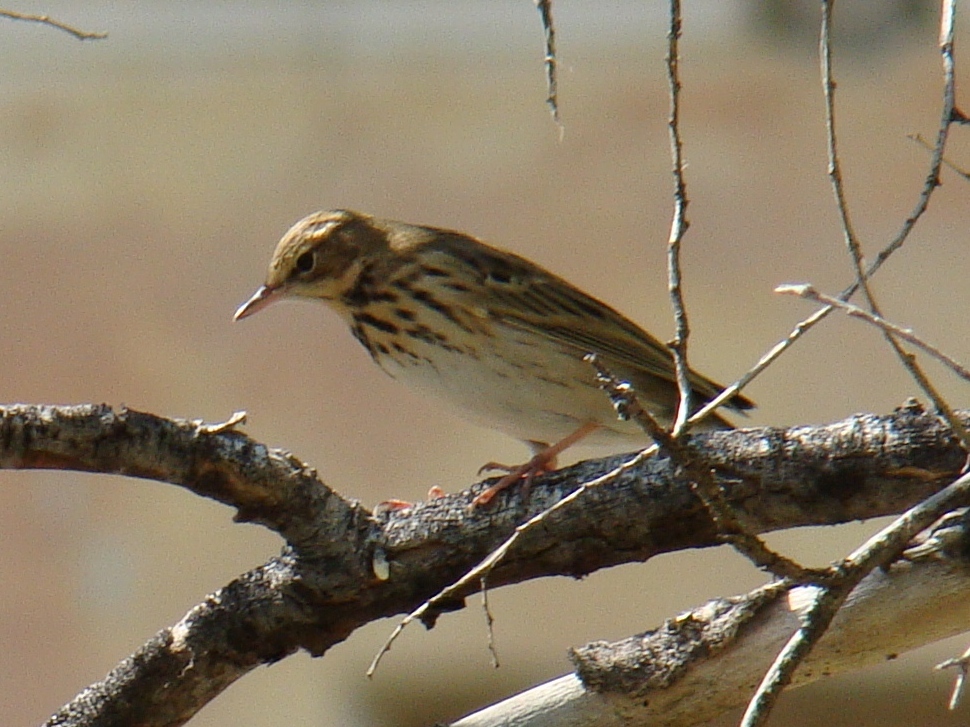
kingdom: Animalia
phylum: Chordata
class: Aves
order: Passeriformes
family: Motacillidae
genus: Anthus
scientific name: Anthus trivialis
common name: Tree pipit
